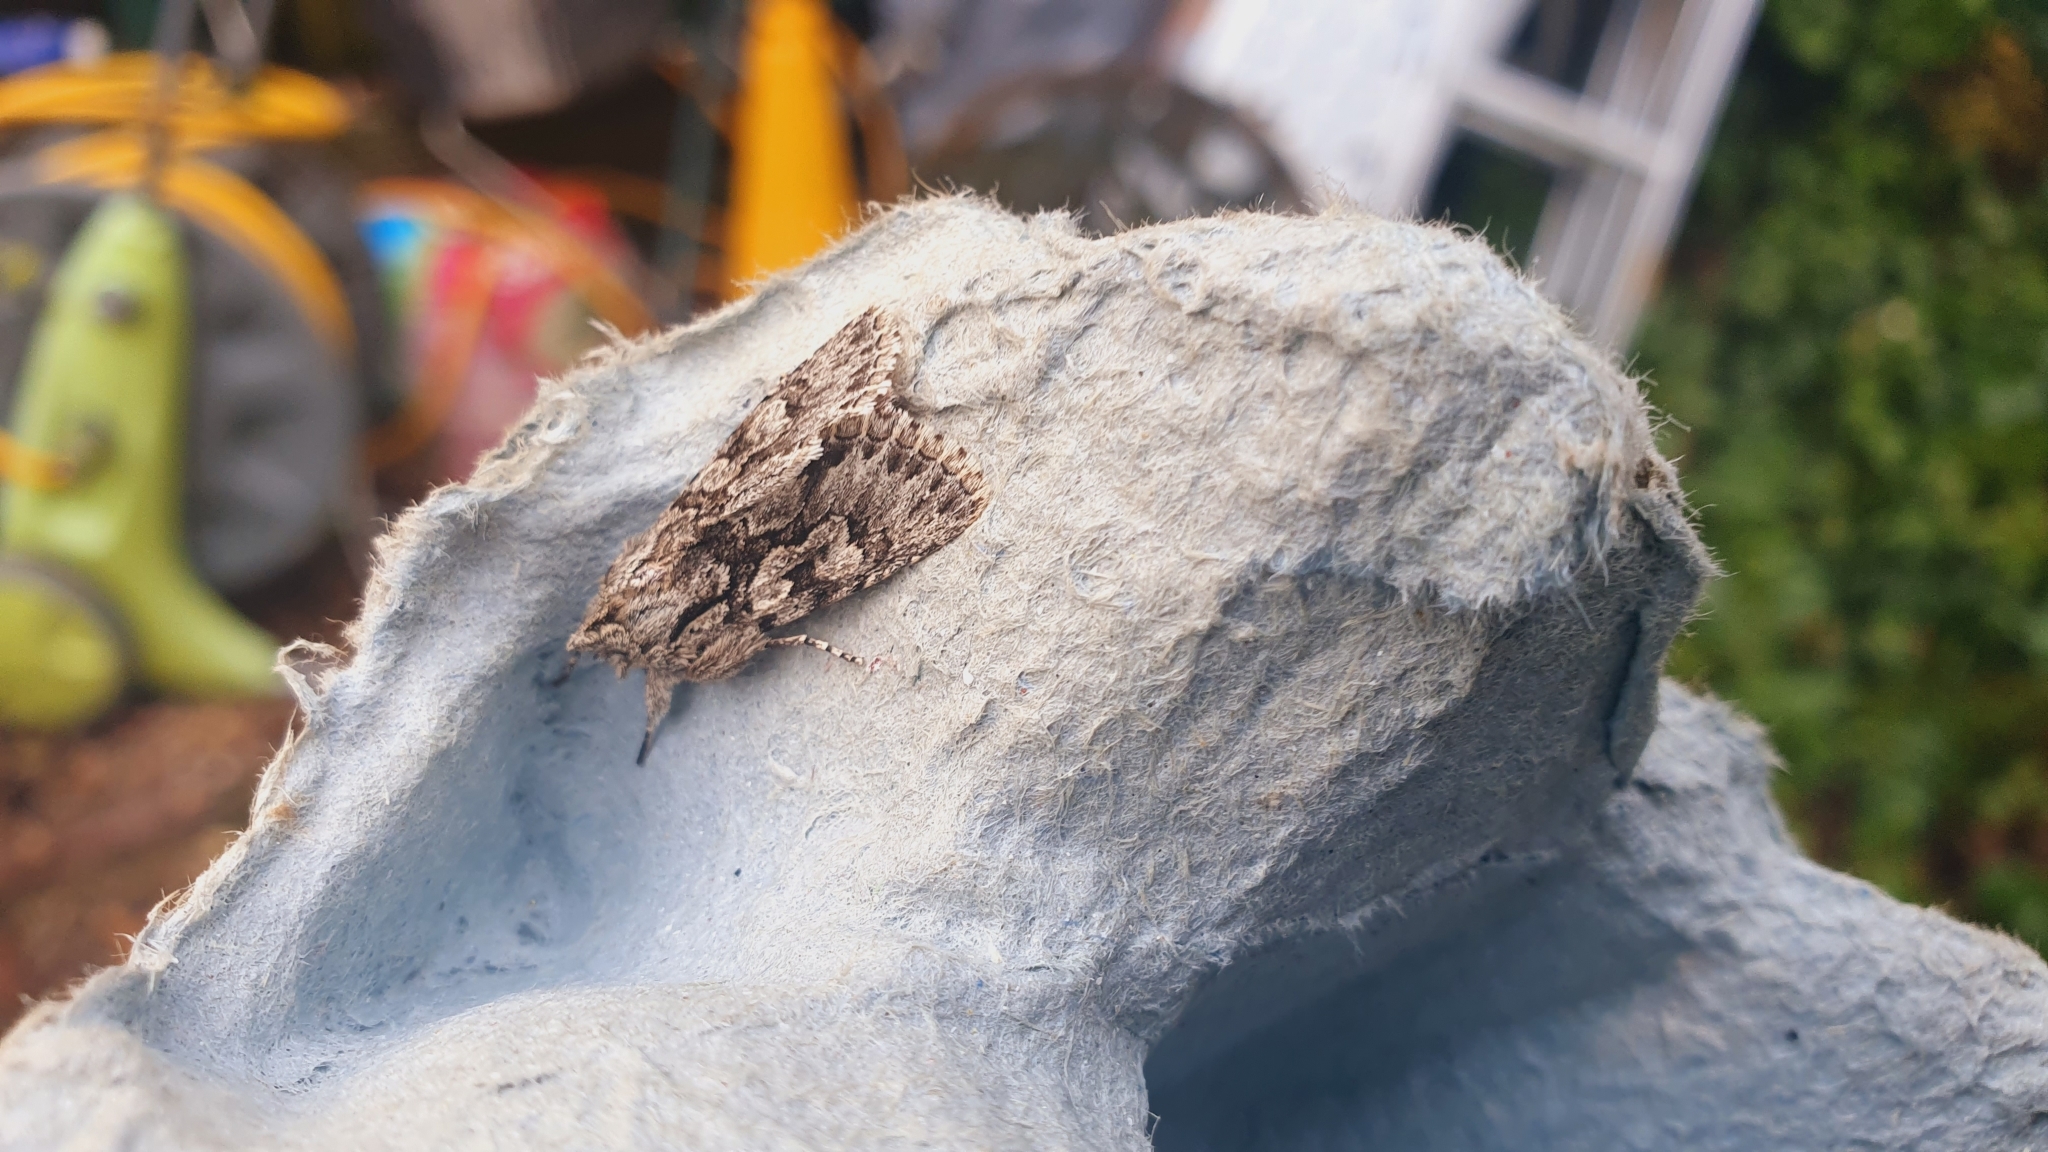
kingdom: Animalia
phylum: Arthropoda
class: Insecta
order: Lepidoptera
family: Noctuidae
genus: Xylocampa
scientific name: Xylocampa areola
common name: Early grey
